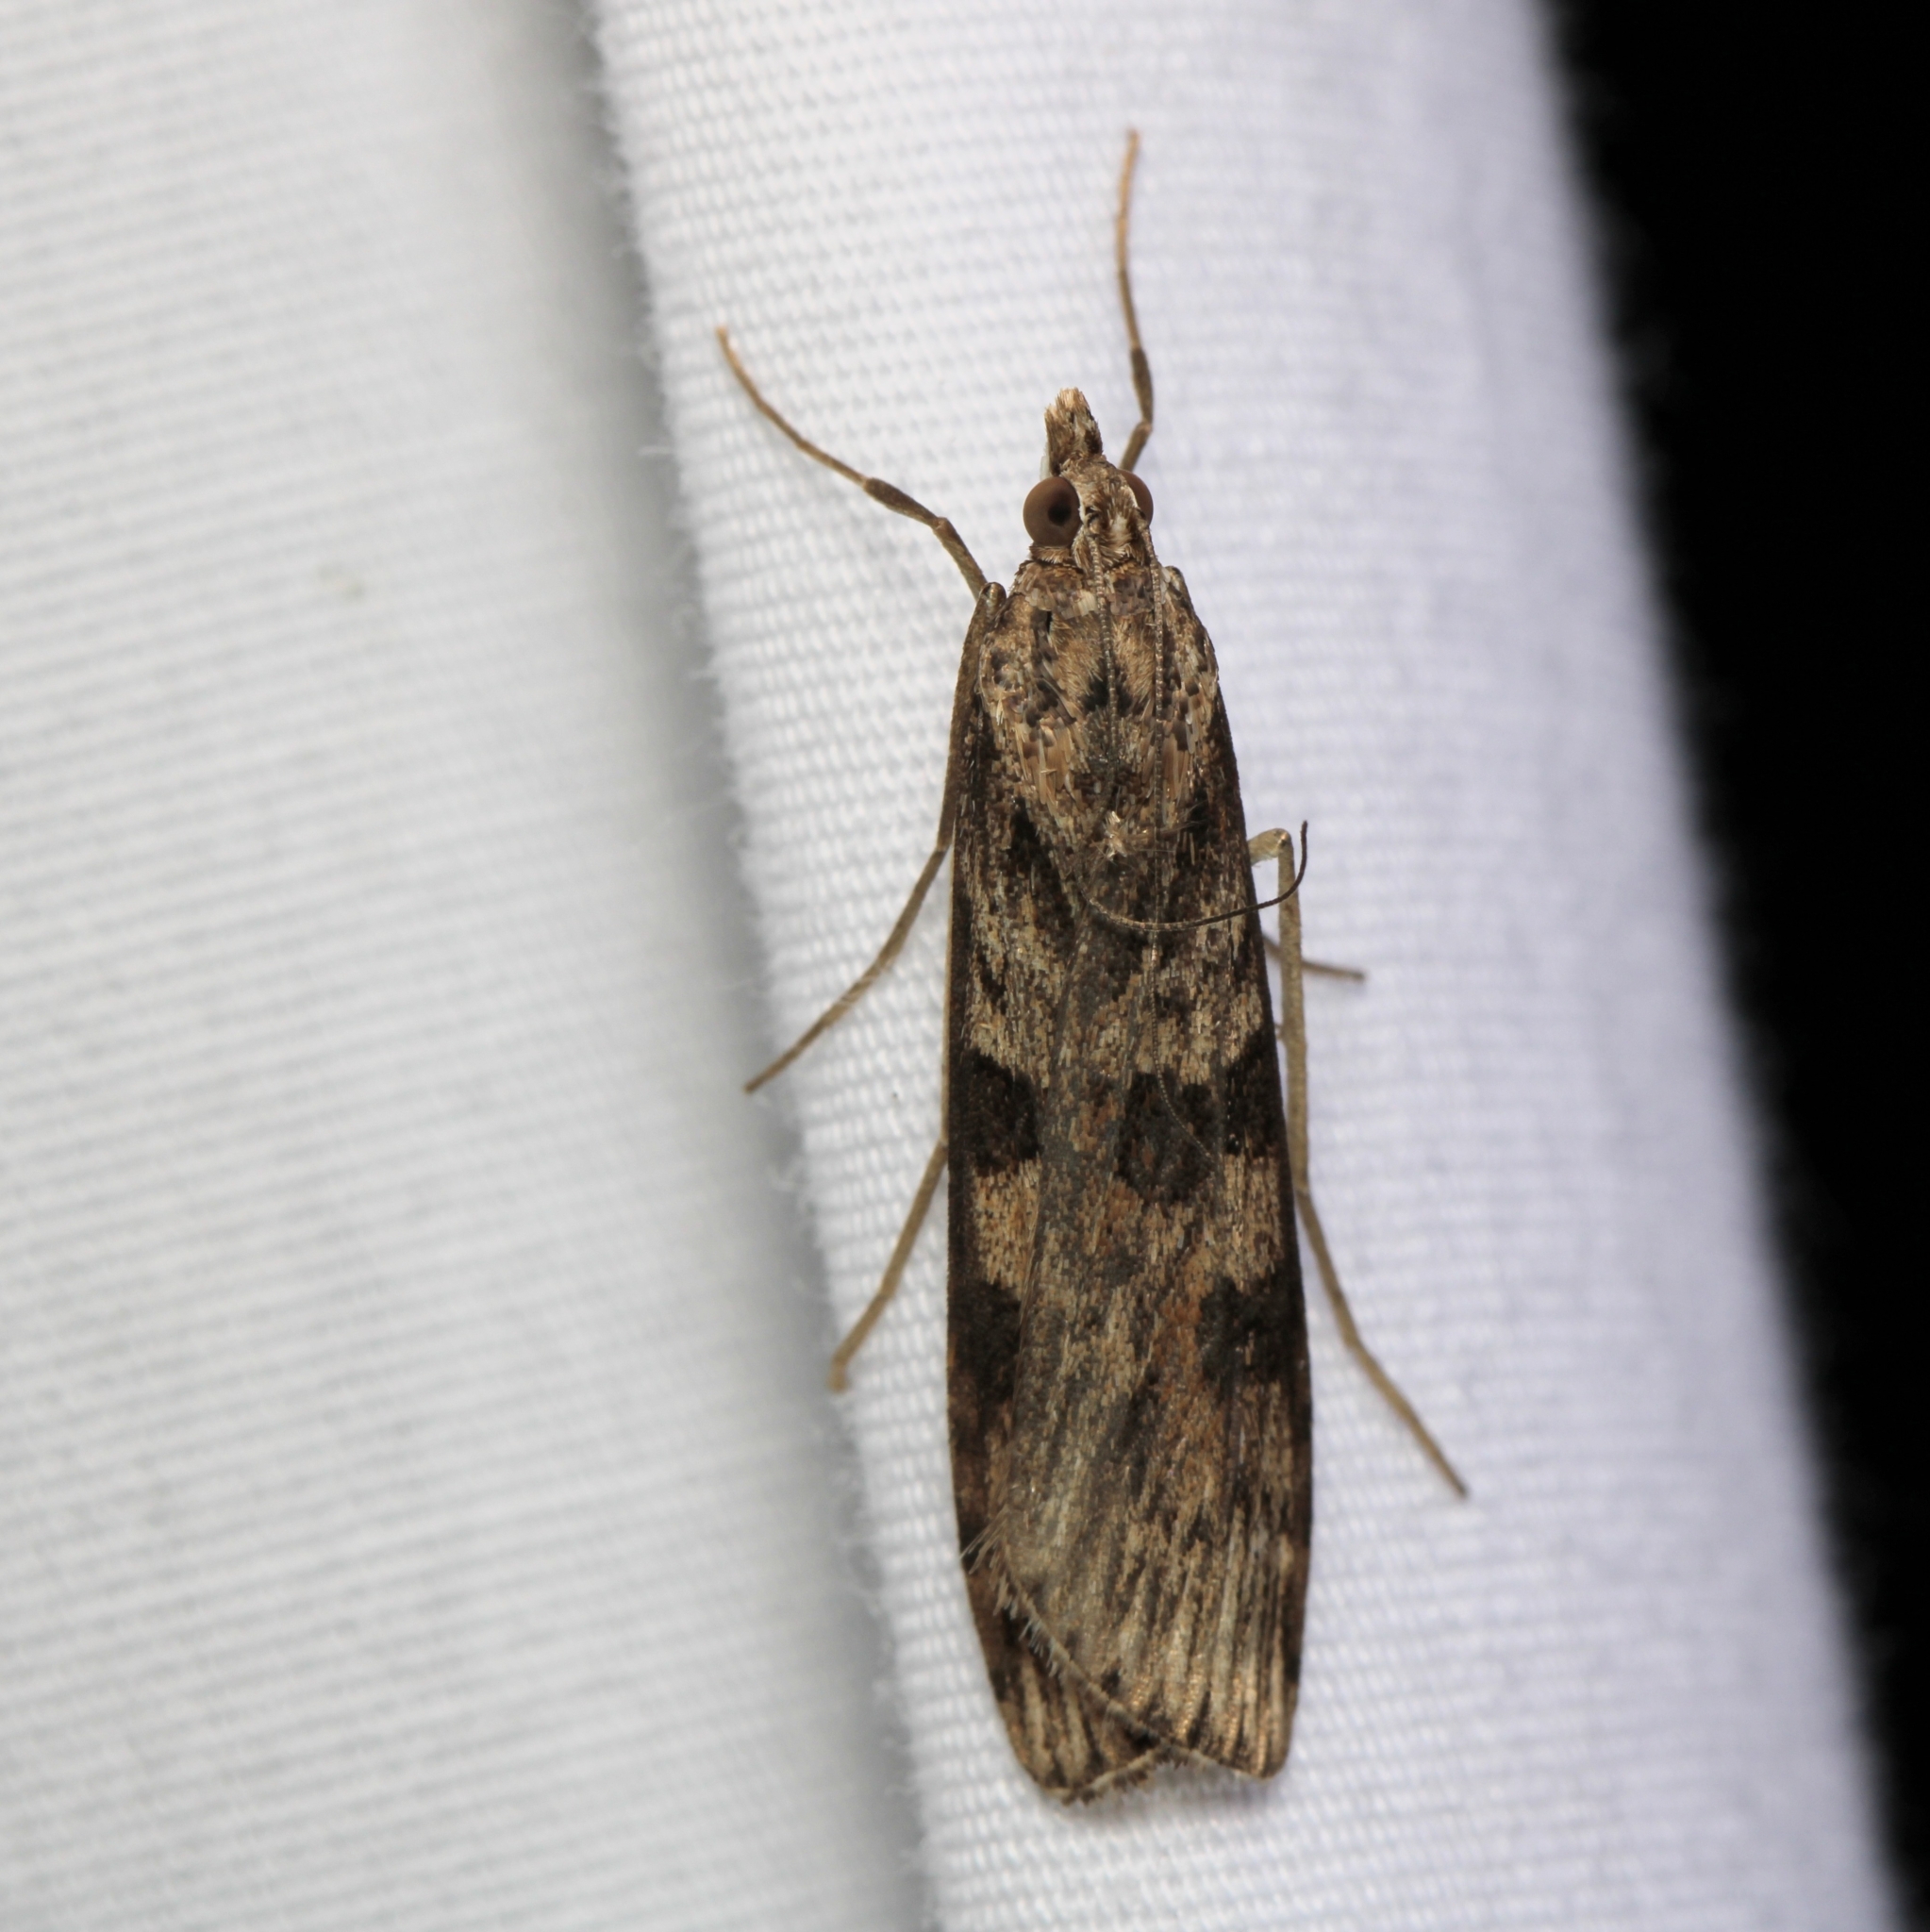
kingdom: Animalia
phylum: Arthropoda
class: Insecta
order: Lepidoptera
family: Crambidae
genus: Nomophila
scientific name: Nomophila nearctica
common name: American rush veneer
